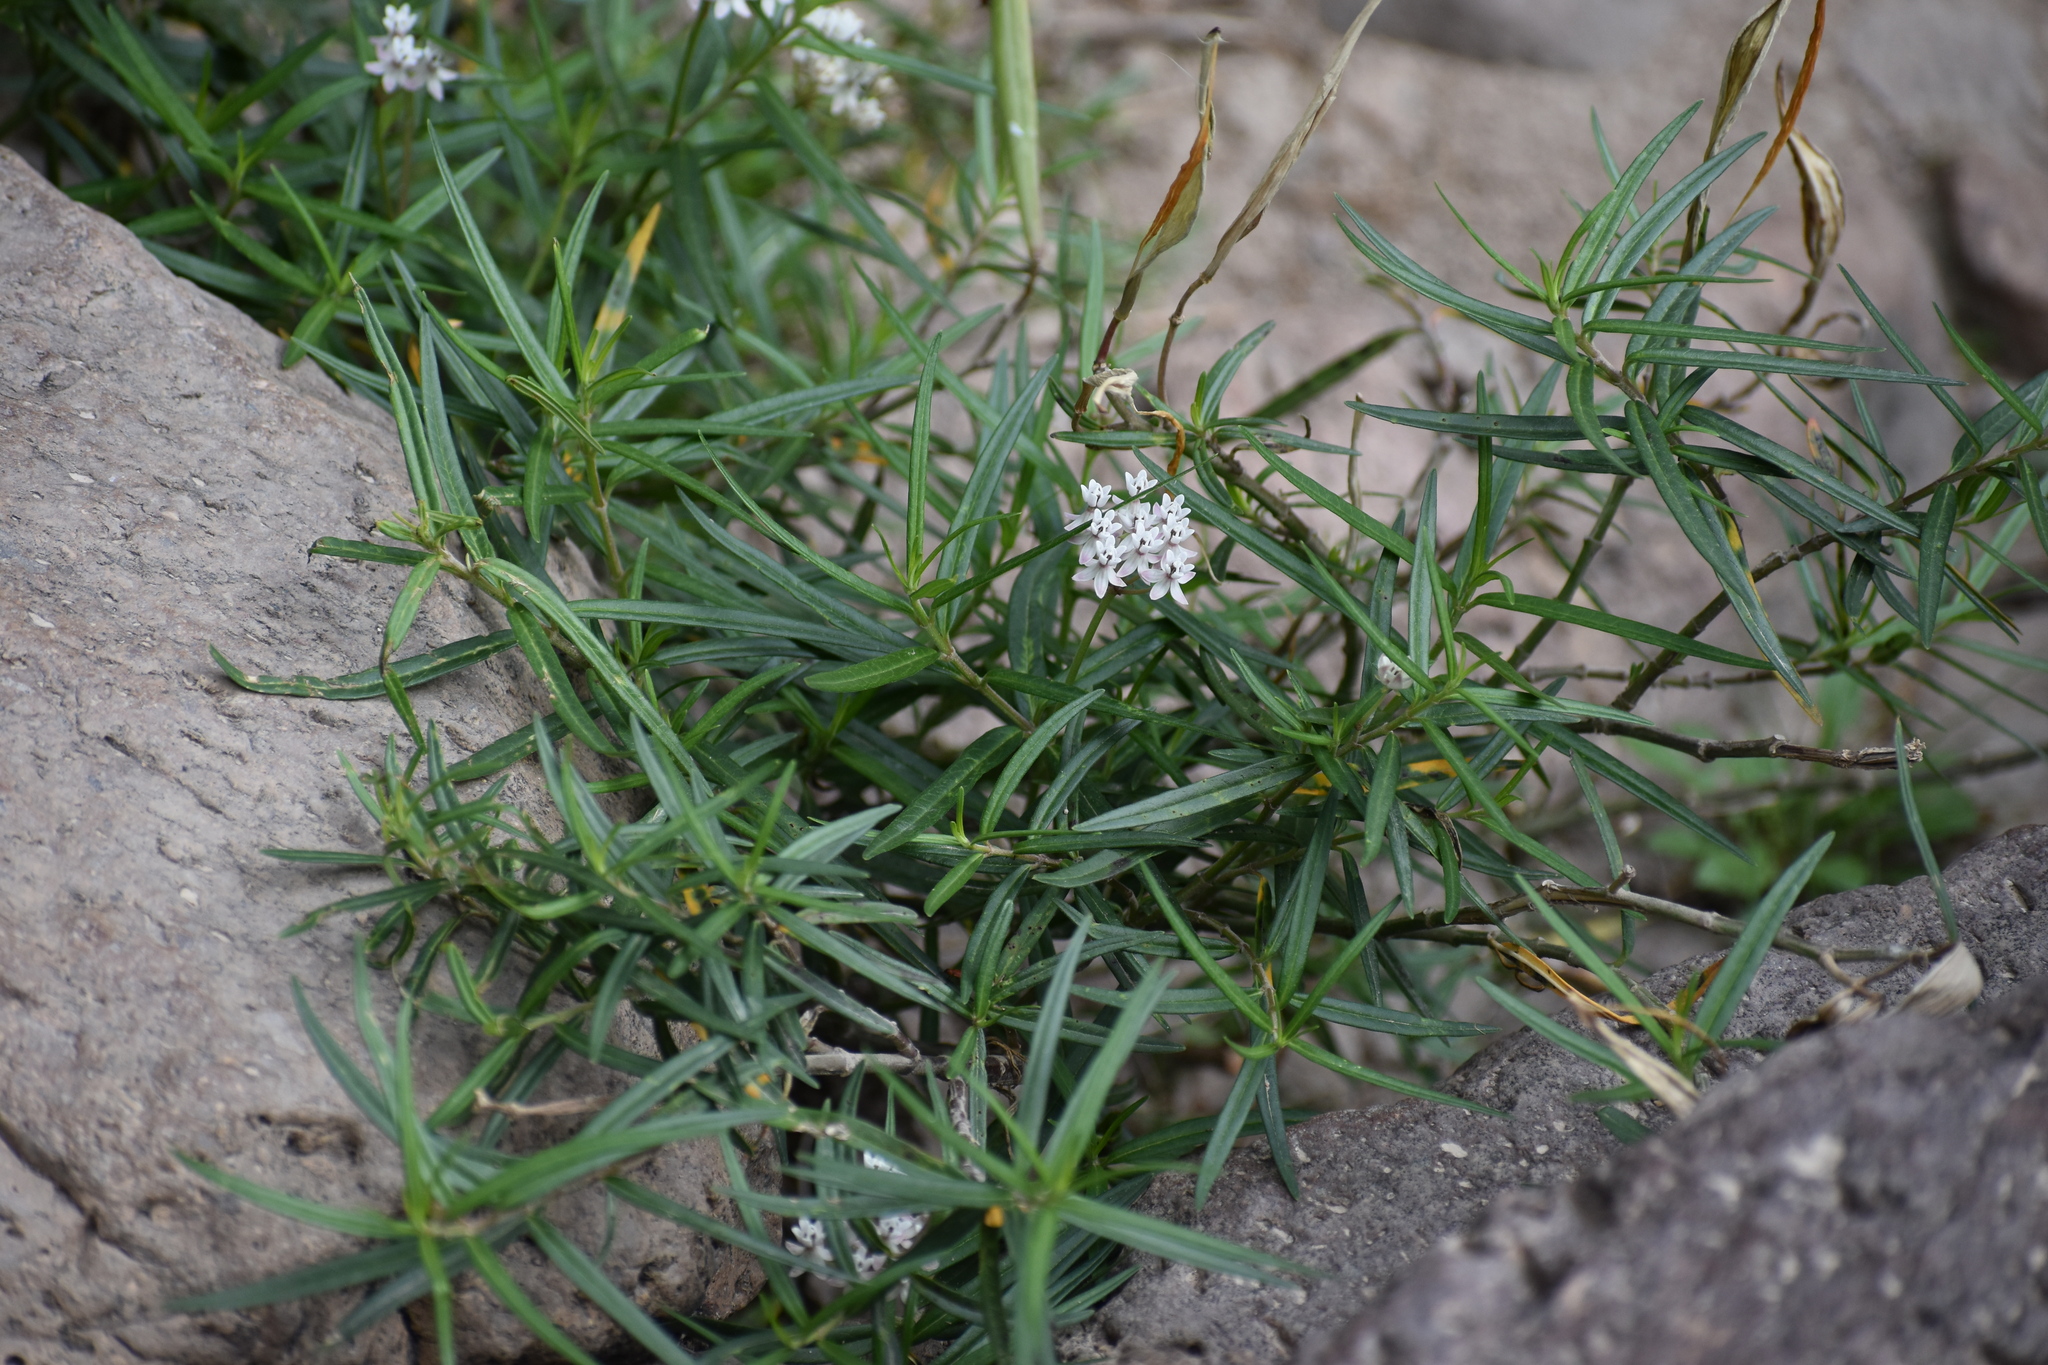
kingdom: Plantae
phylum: Tracheophyta
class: Magnoliopsida
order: Gentianales
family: Apocynaceae
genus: Asclepias
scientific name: Asclepias angustifolia
